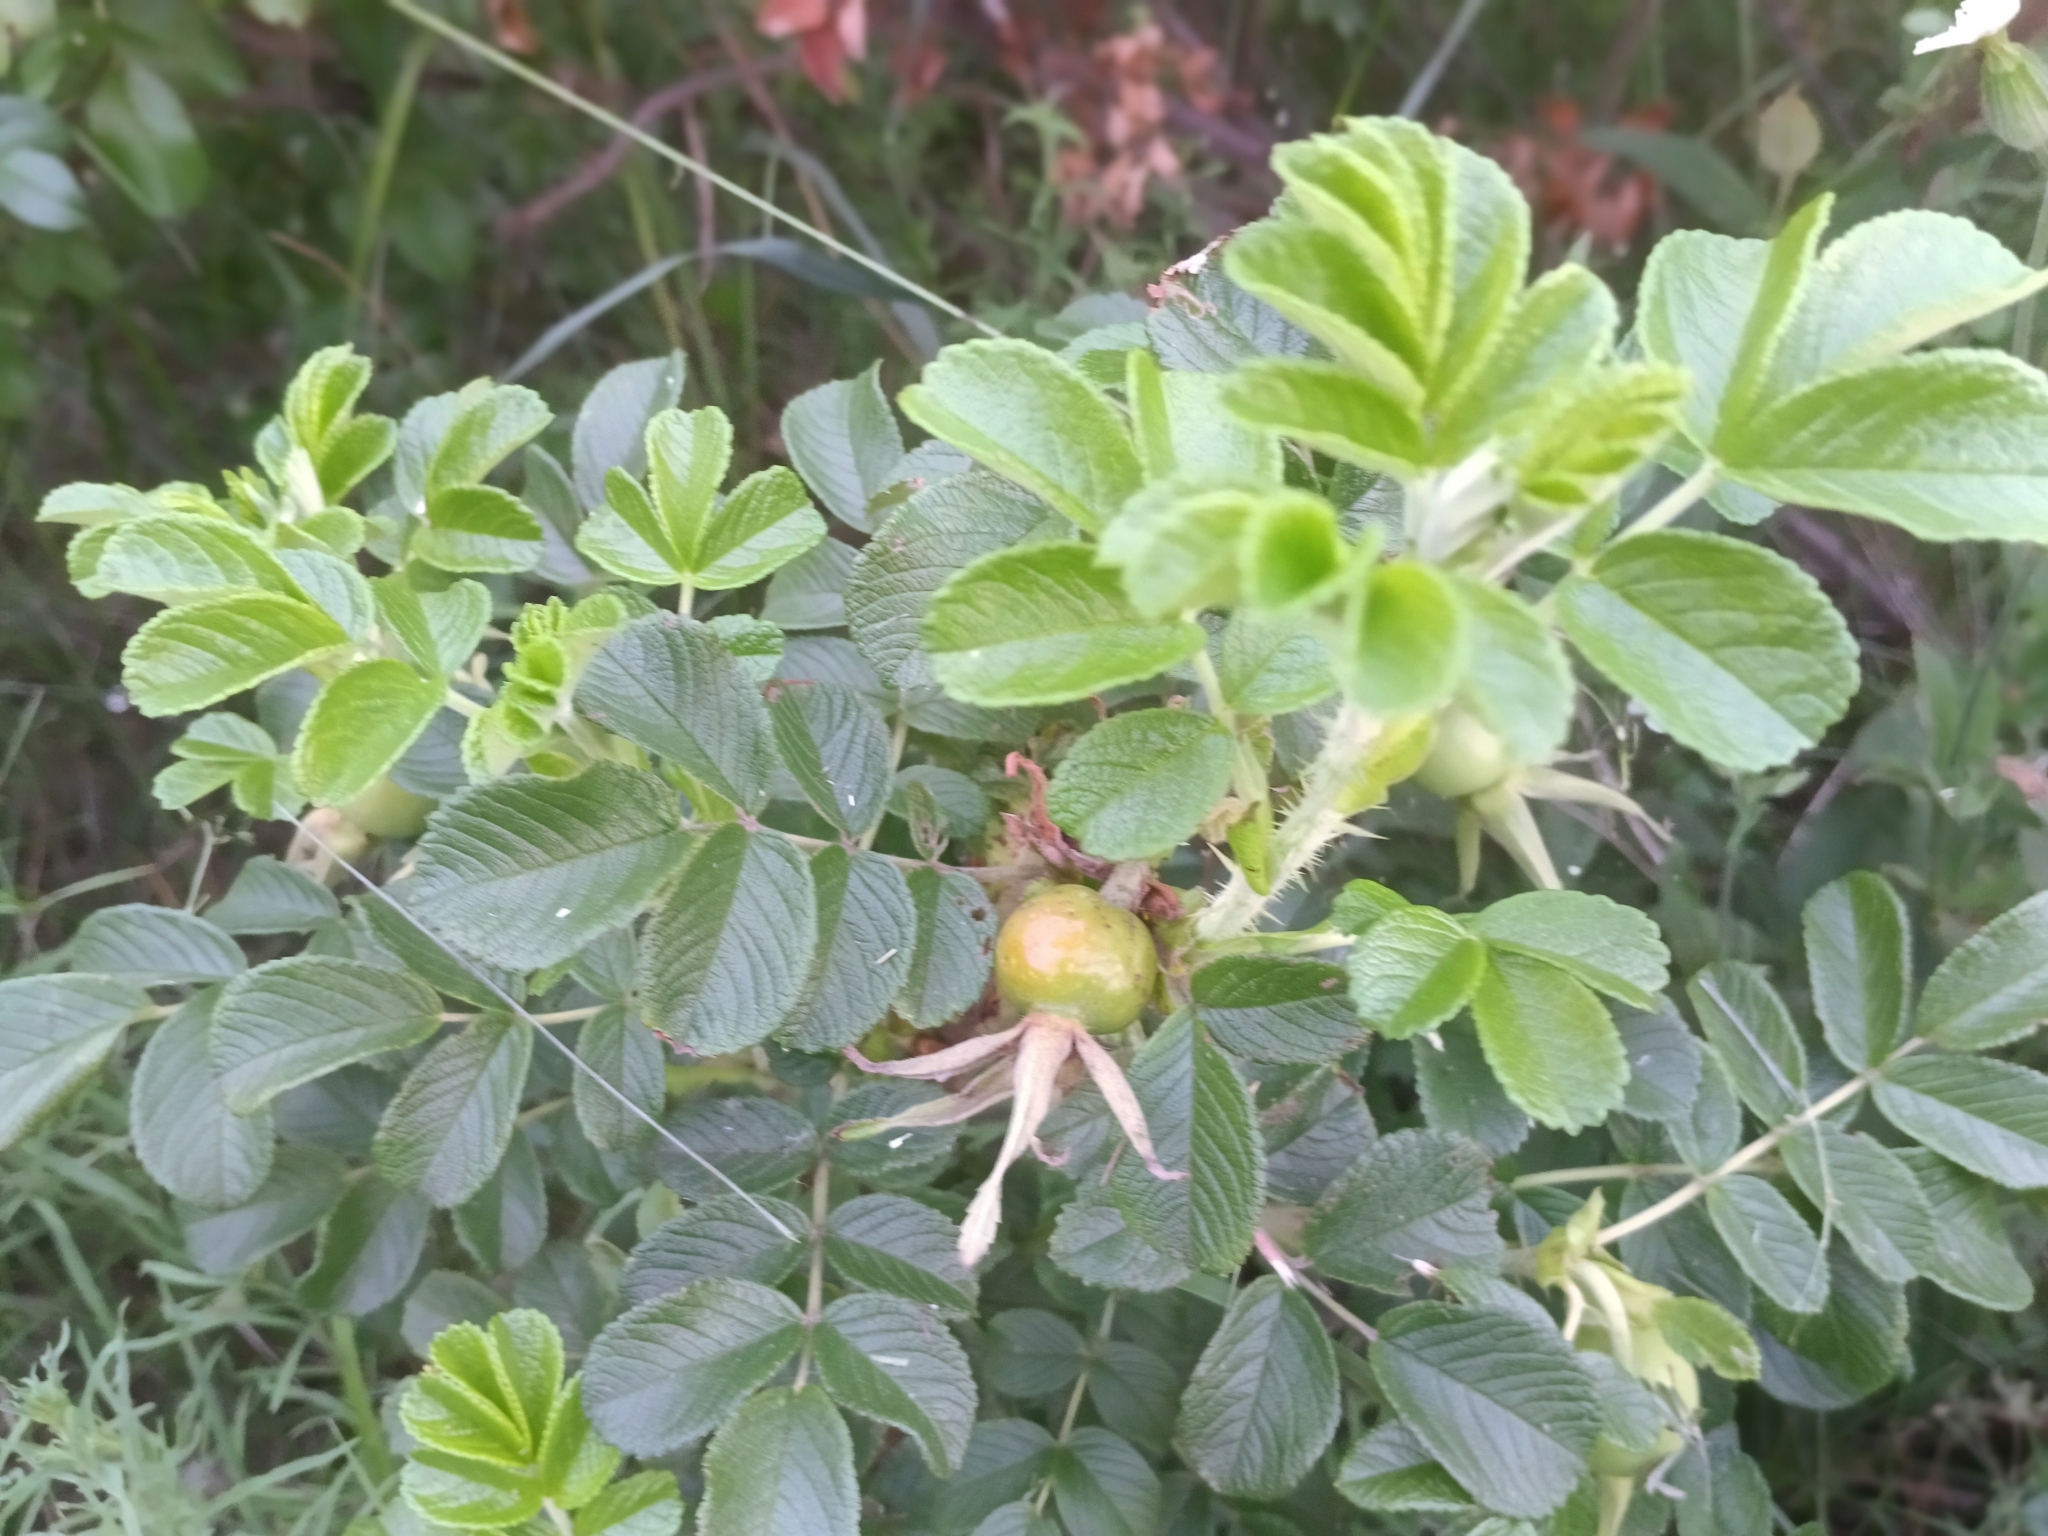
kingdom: Plantae
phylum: Tracheophyta
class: Magnoliopsida
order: Rosales
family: Rosaceae
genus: Rosa
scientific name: Rosa rugosa
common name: Japanese rose
